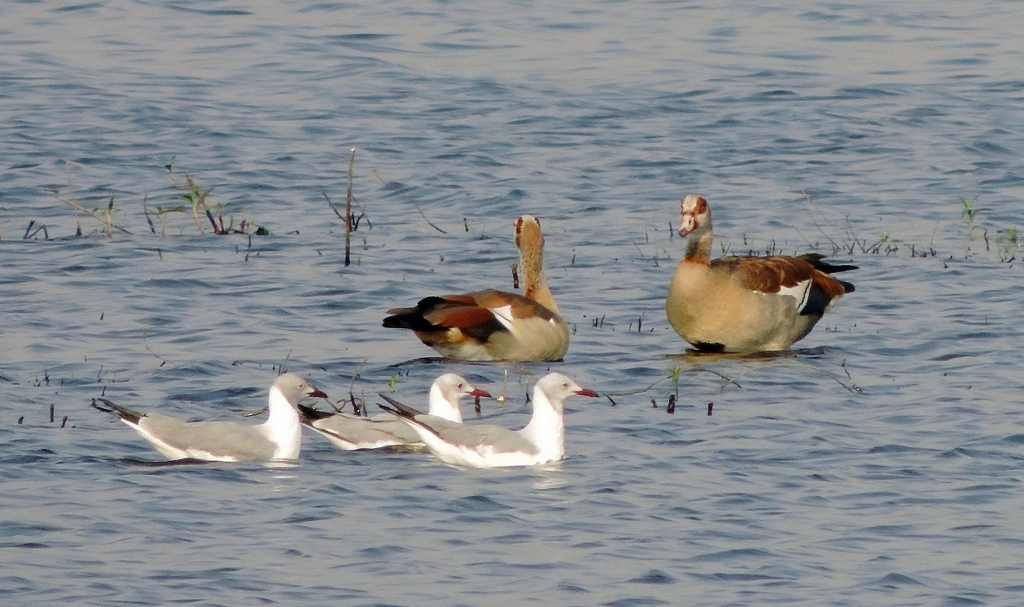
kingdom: Animalia
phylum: Chordata
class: Aves
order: Charadriiformes
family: Laridae
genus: Chroicocephalus
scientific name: Chroicocephalus cirrocephalus
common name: Grey-headed gull
